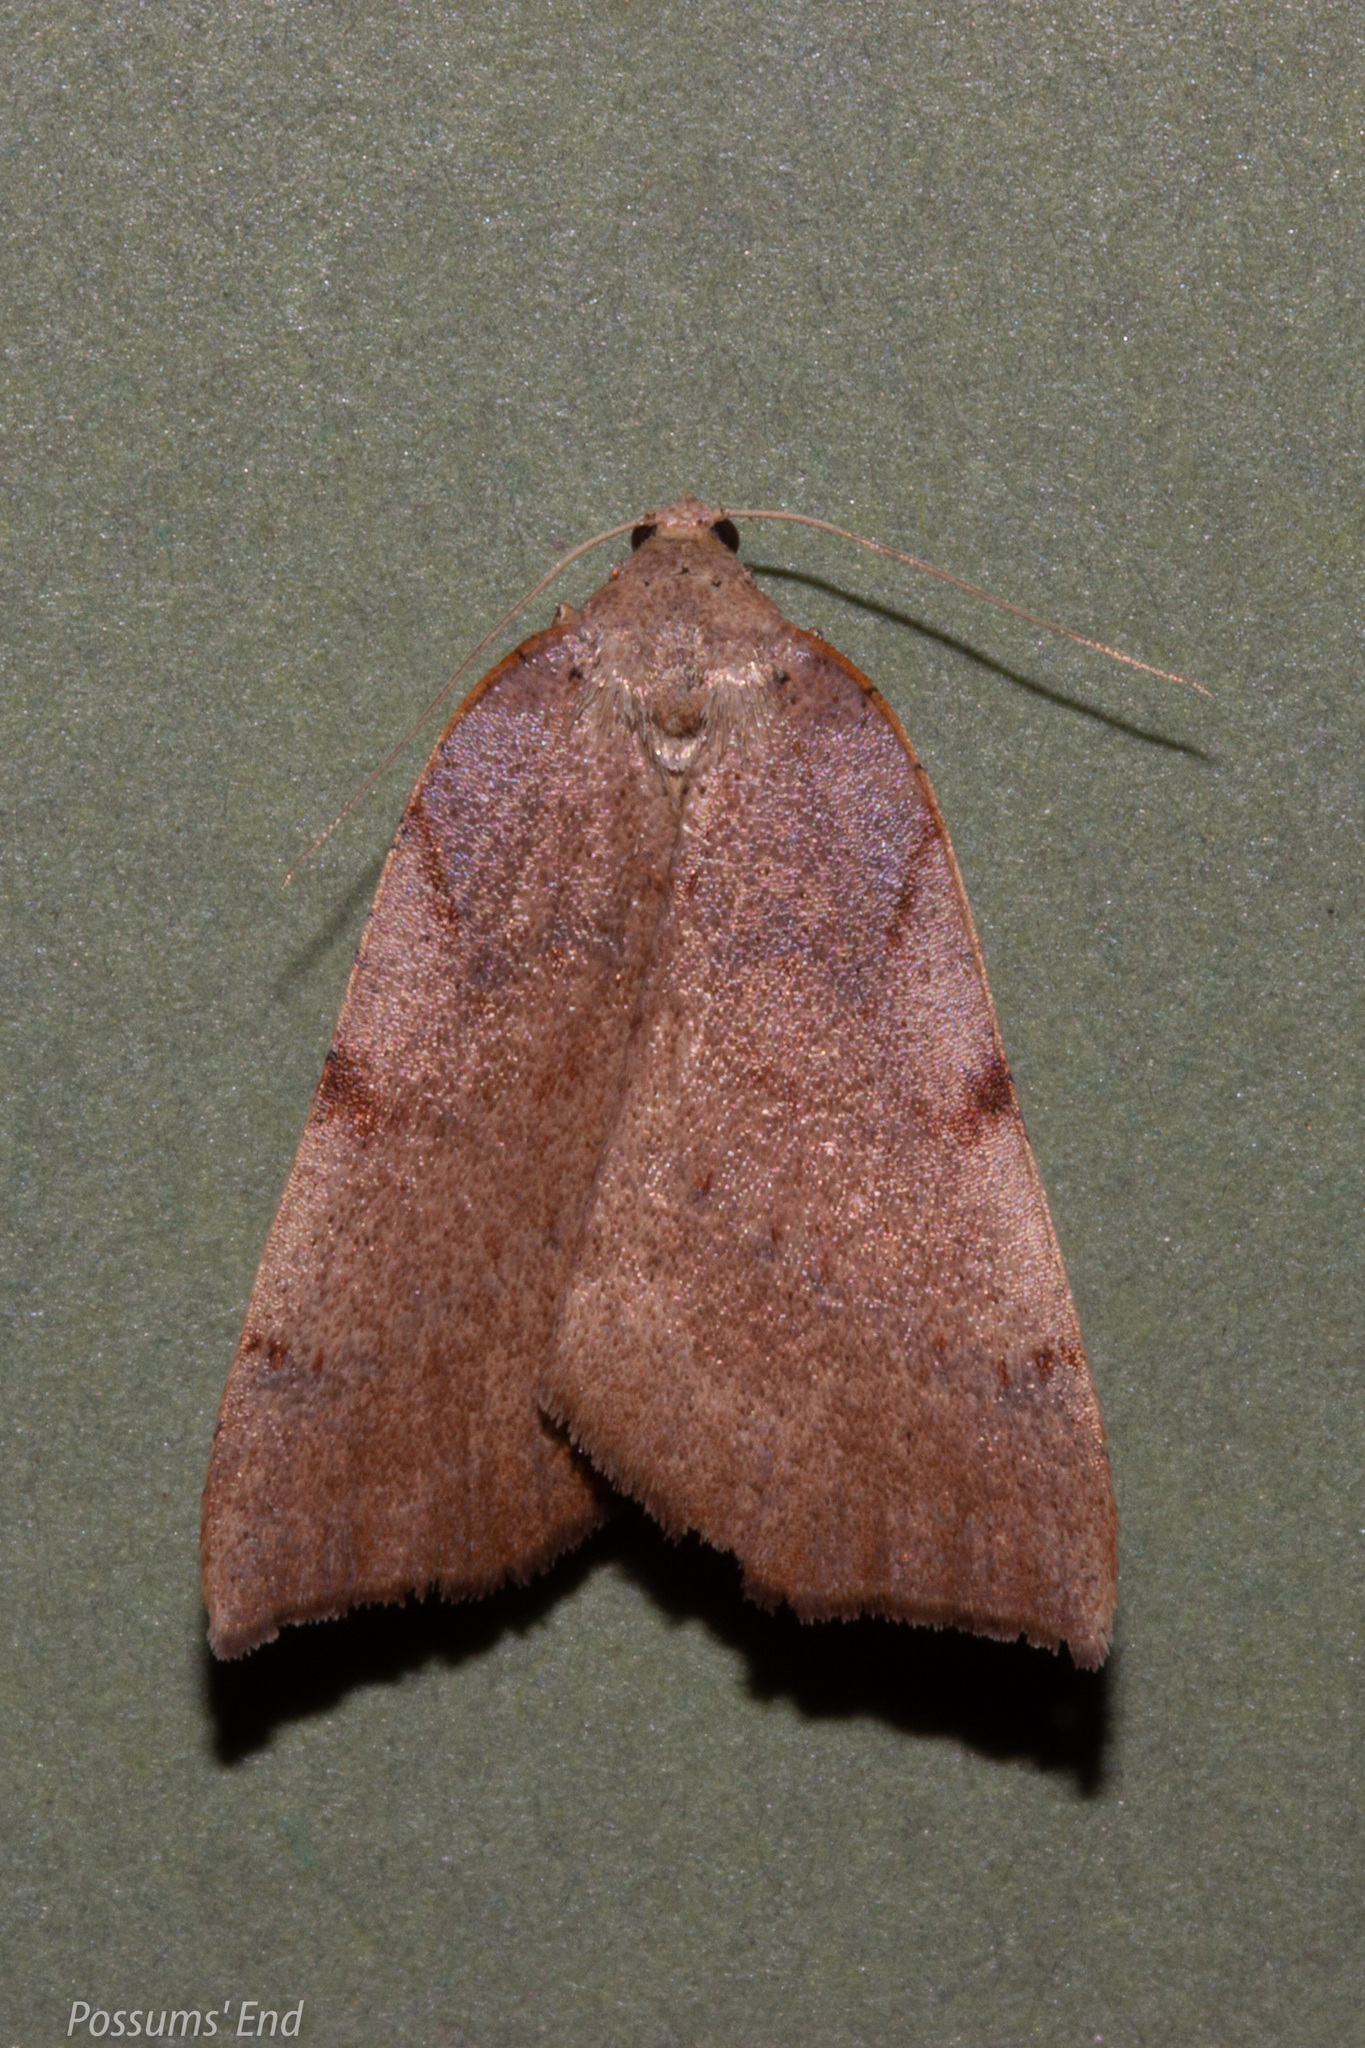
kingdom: Animalia
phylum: Arthropoda
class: Insecta
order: Lepidoptera
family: Geometridae
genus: Sestra
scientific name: Sestra humeraria
